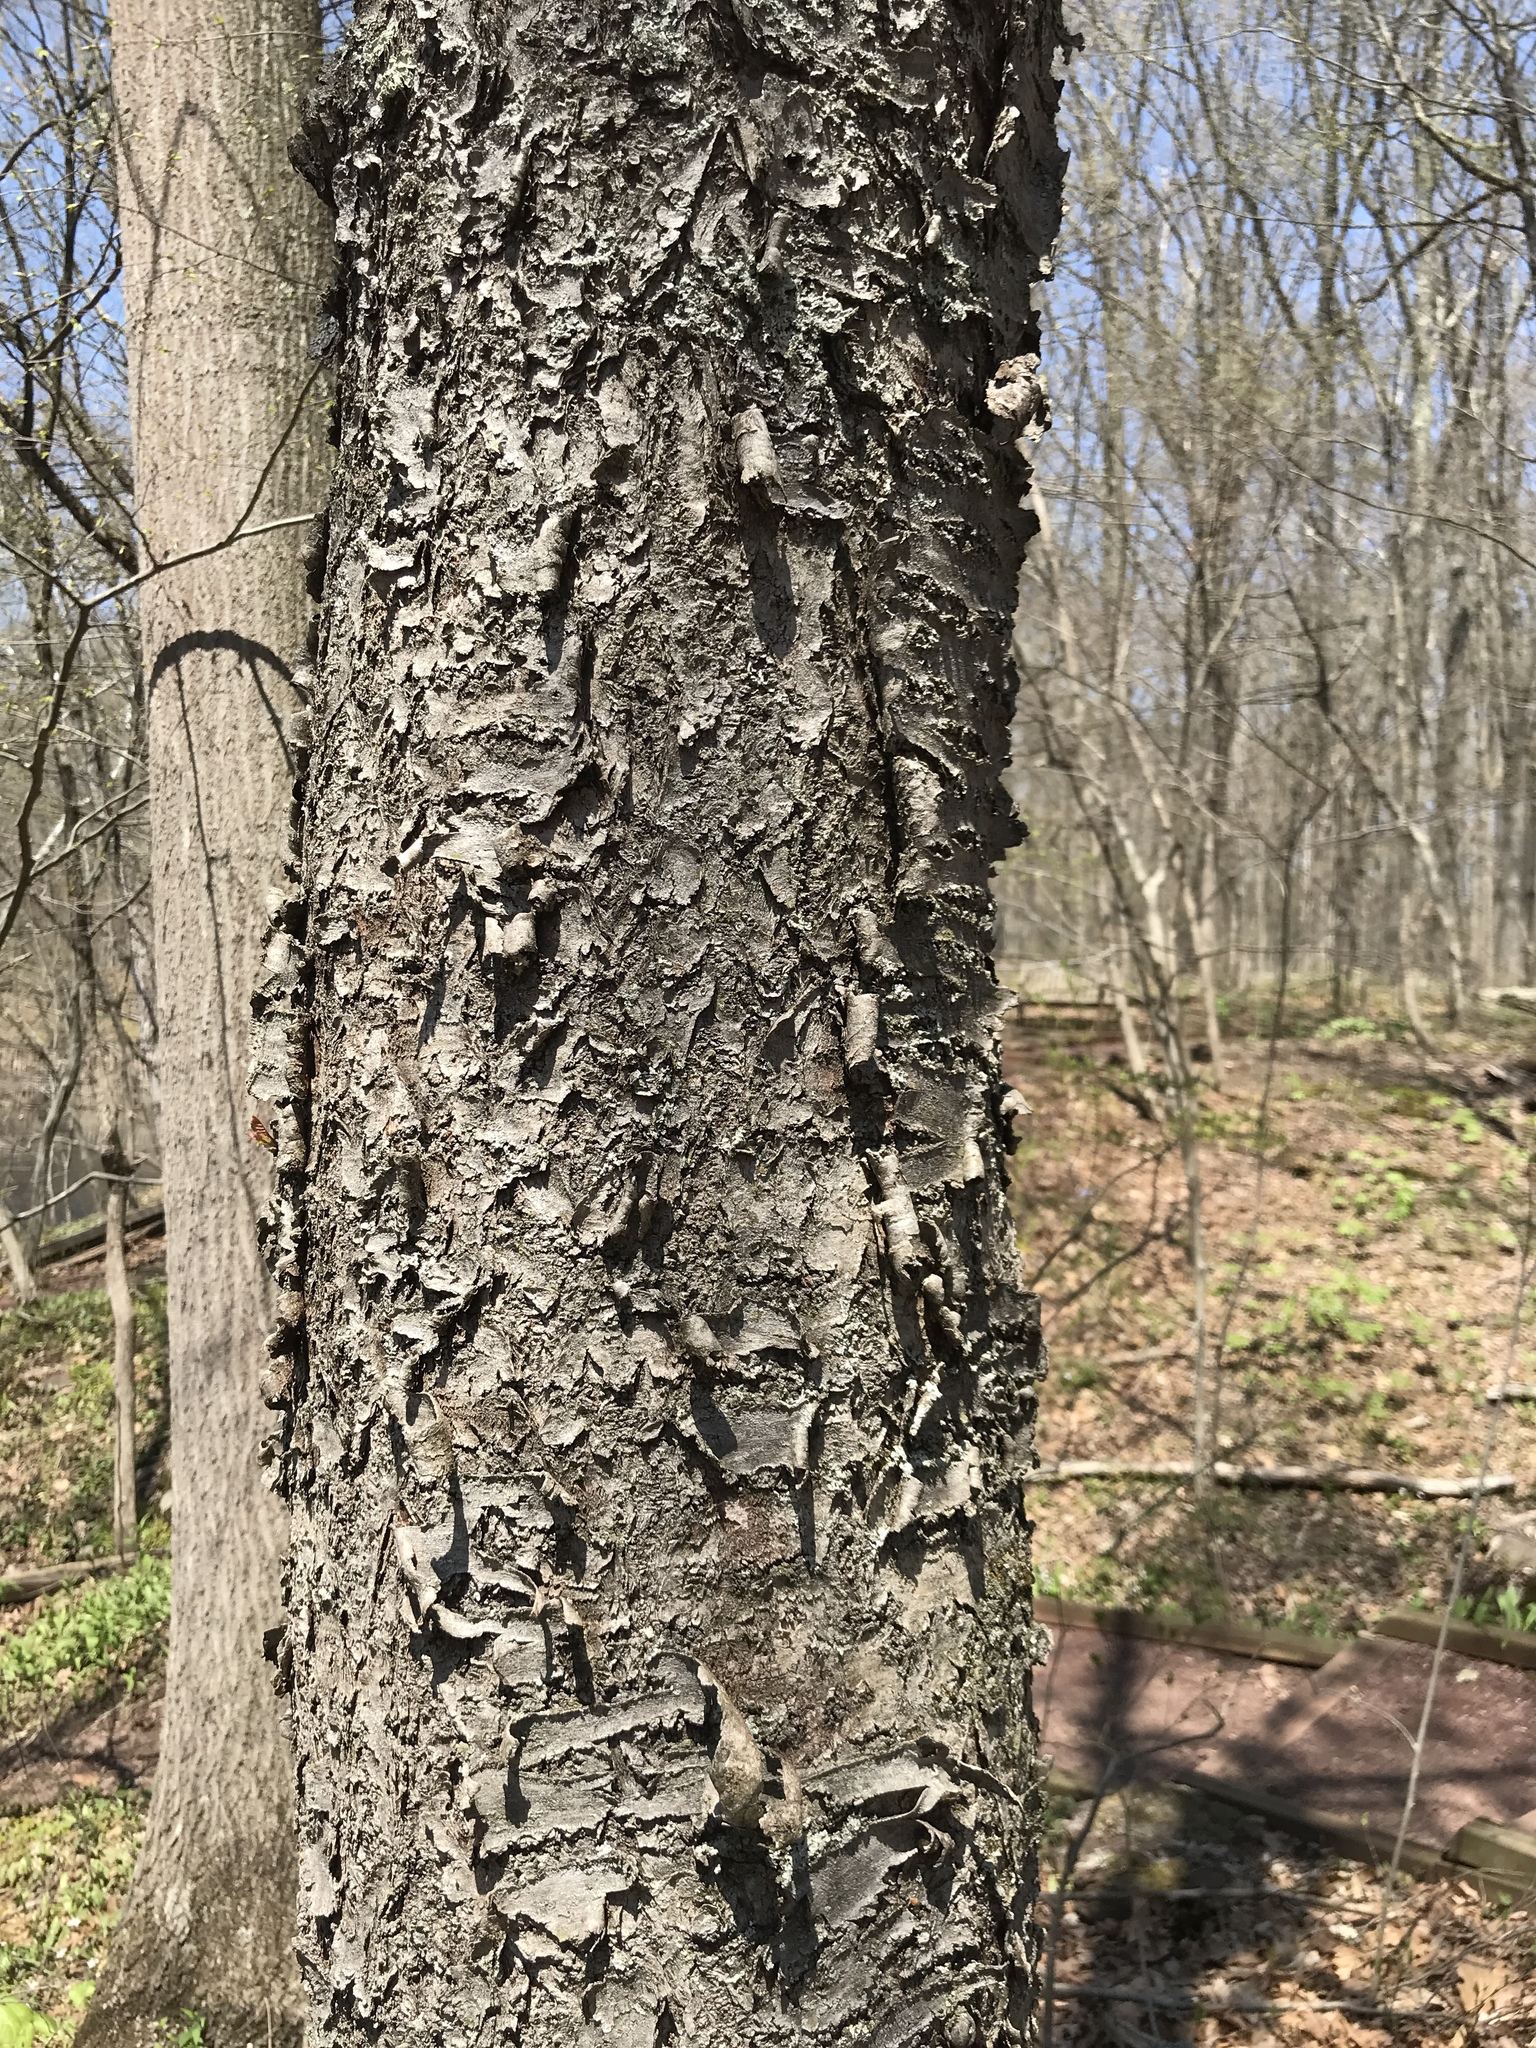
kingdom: Plantae
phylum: Tracheophyta
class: Magnoliopsida
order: Rosales
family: Rosaceae
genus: Prunus
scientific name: Prunus serotina
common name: Black cherry
